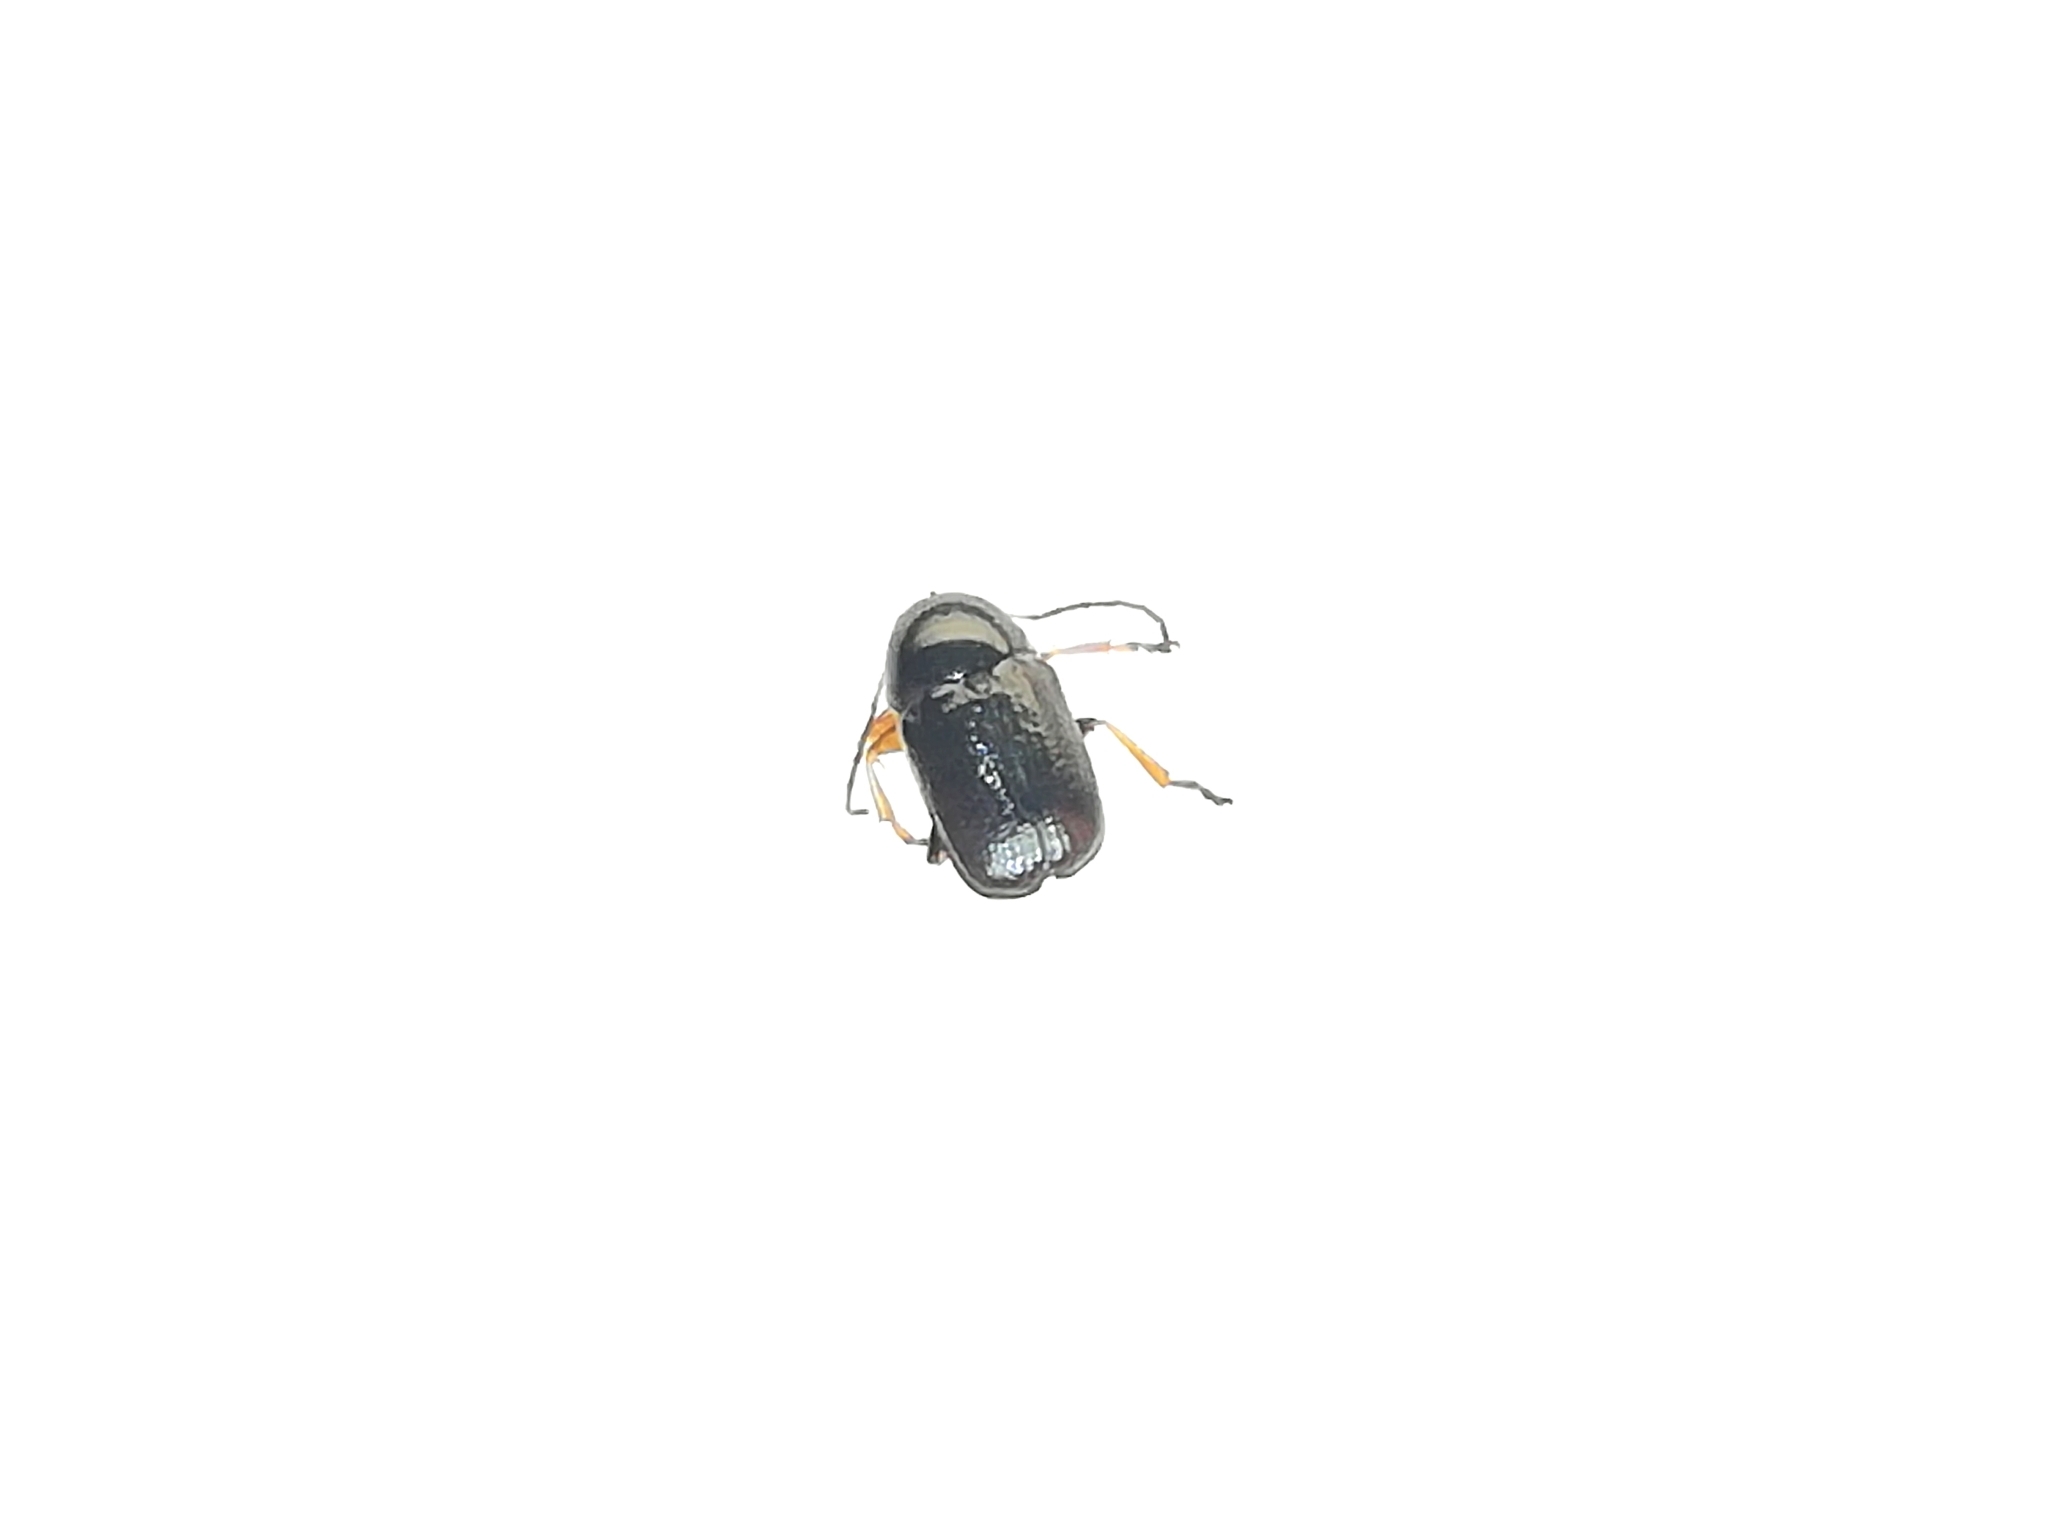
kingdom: Animalia
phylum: Arthropoda
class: Insecta
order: Coleoptera
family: Chrysomelidae
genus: Cryptocephalus
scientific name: Cryptocephalus bameuli
